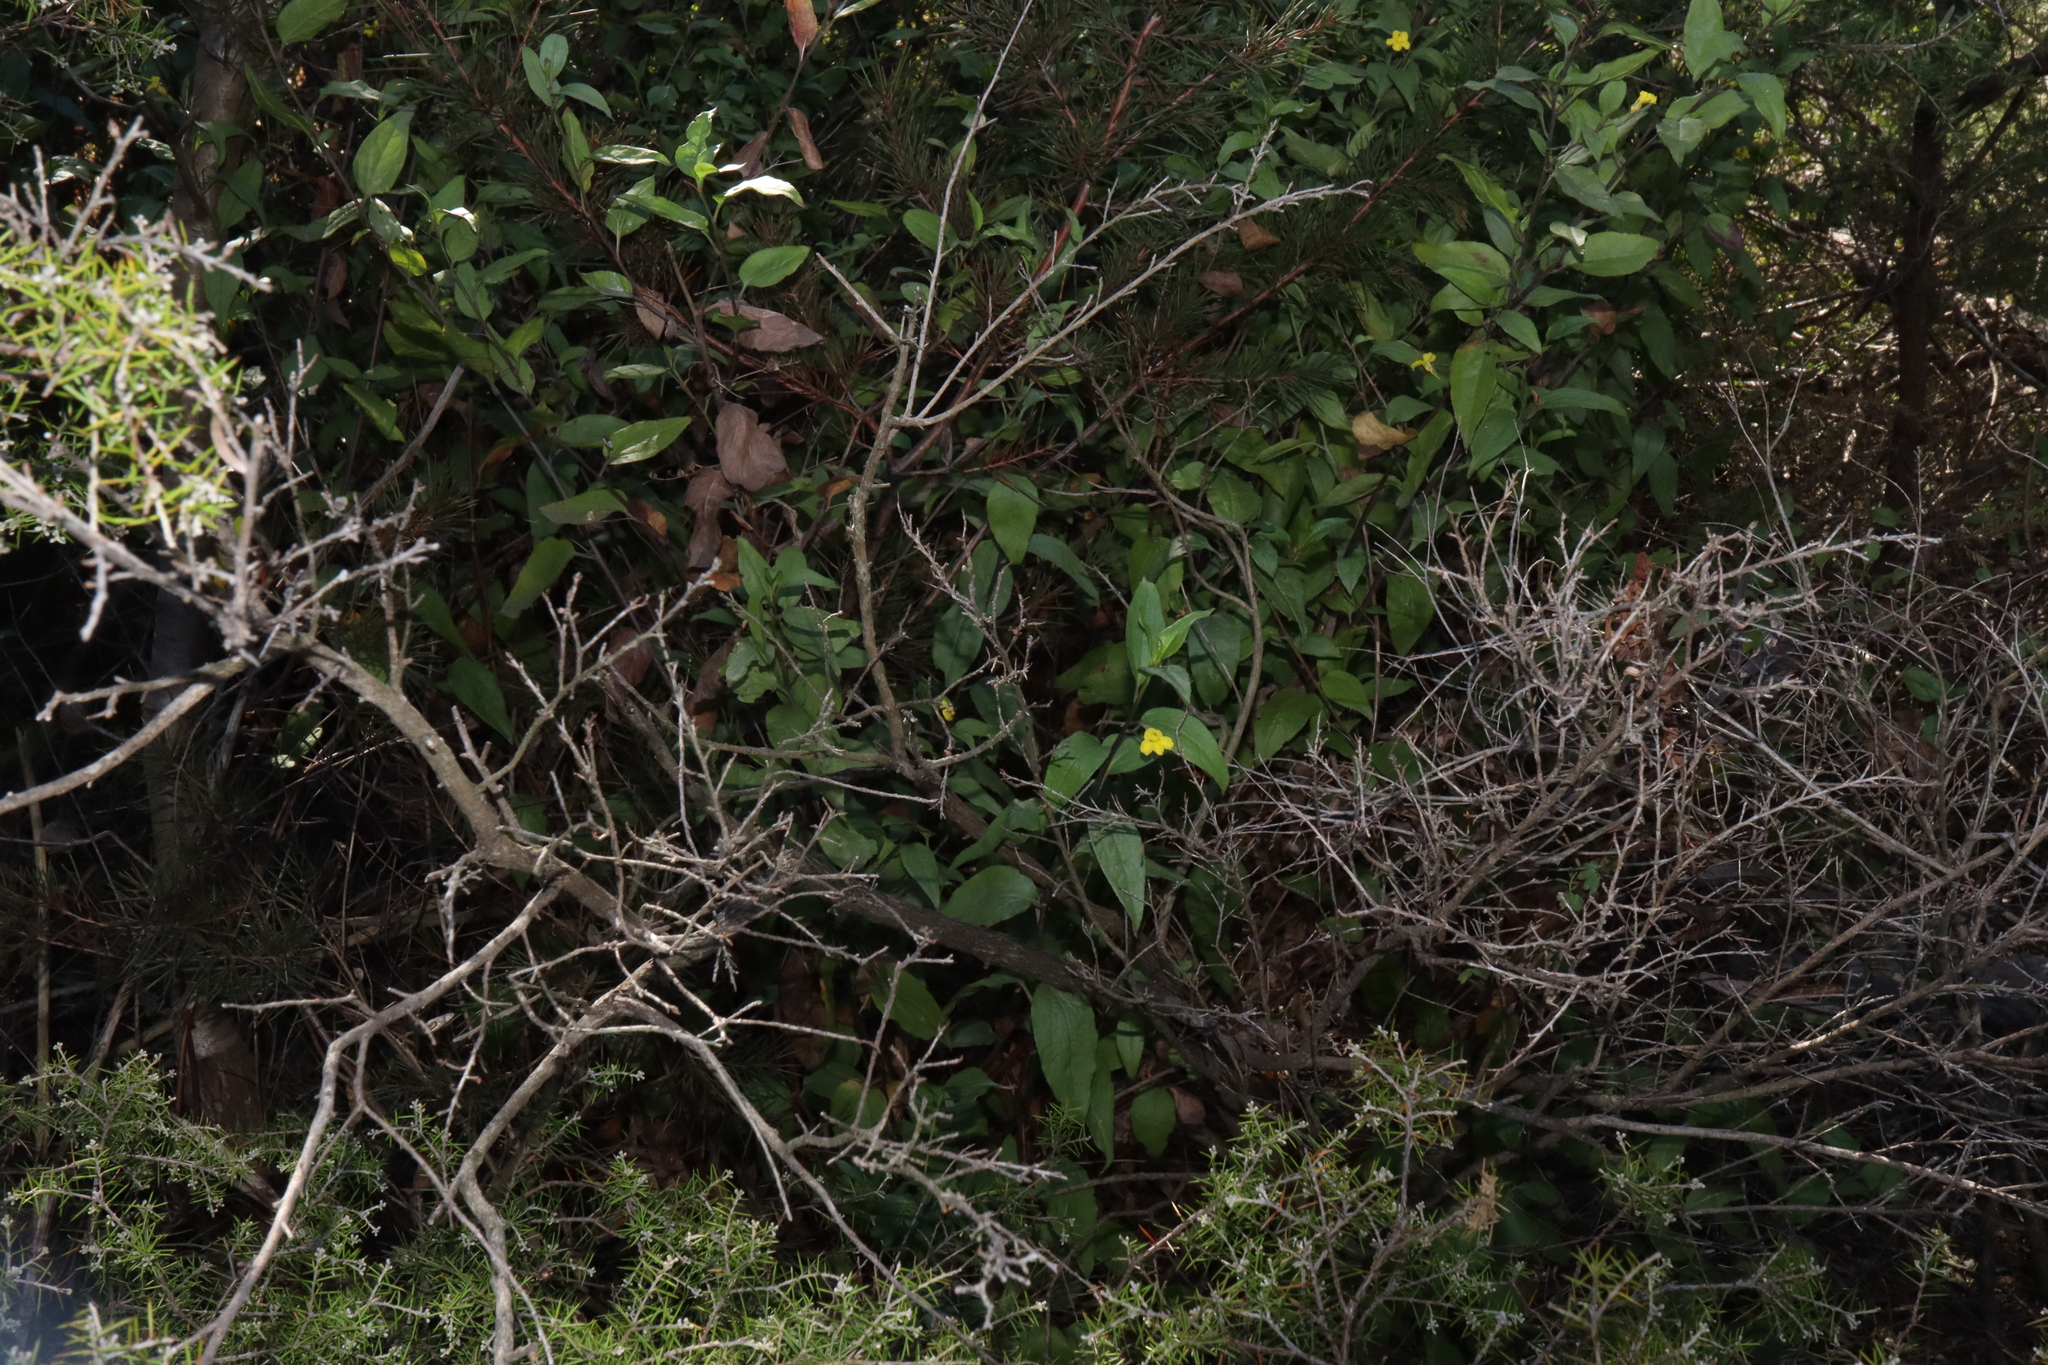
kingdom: Plantae
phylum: Tracheophyta
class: Magnoliopsida
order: Asterales
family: Goodeniaceae
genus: Goodenia
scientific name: Goodenia ovata
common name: Hop goodenia
